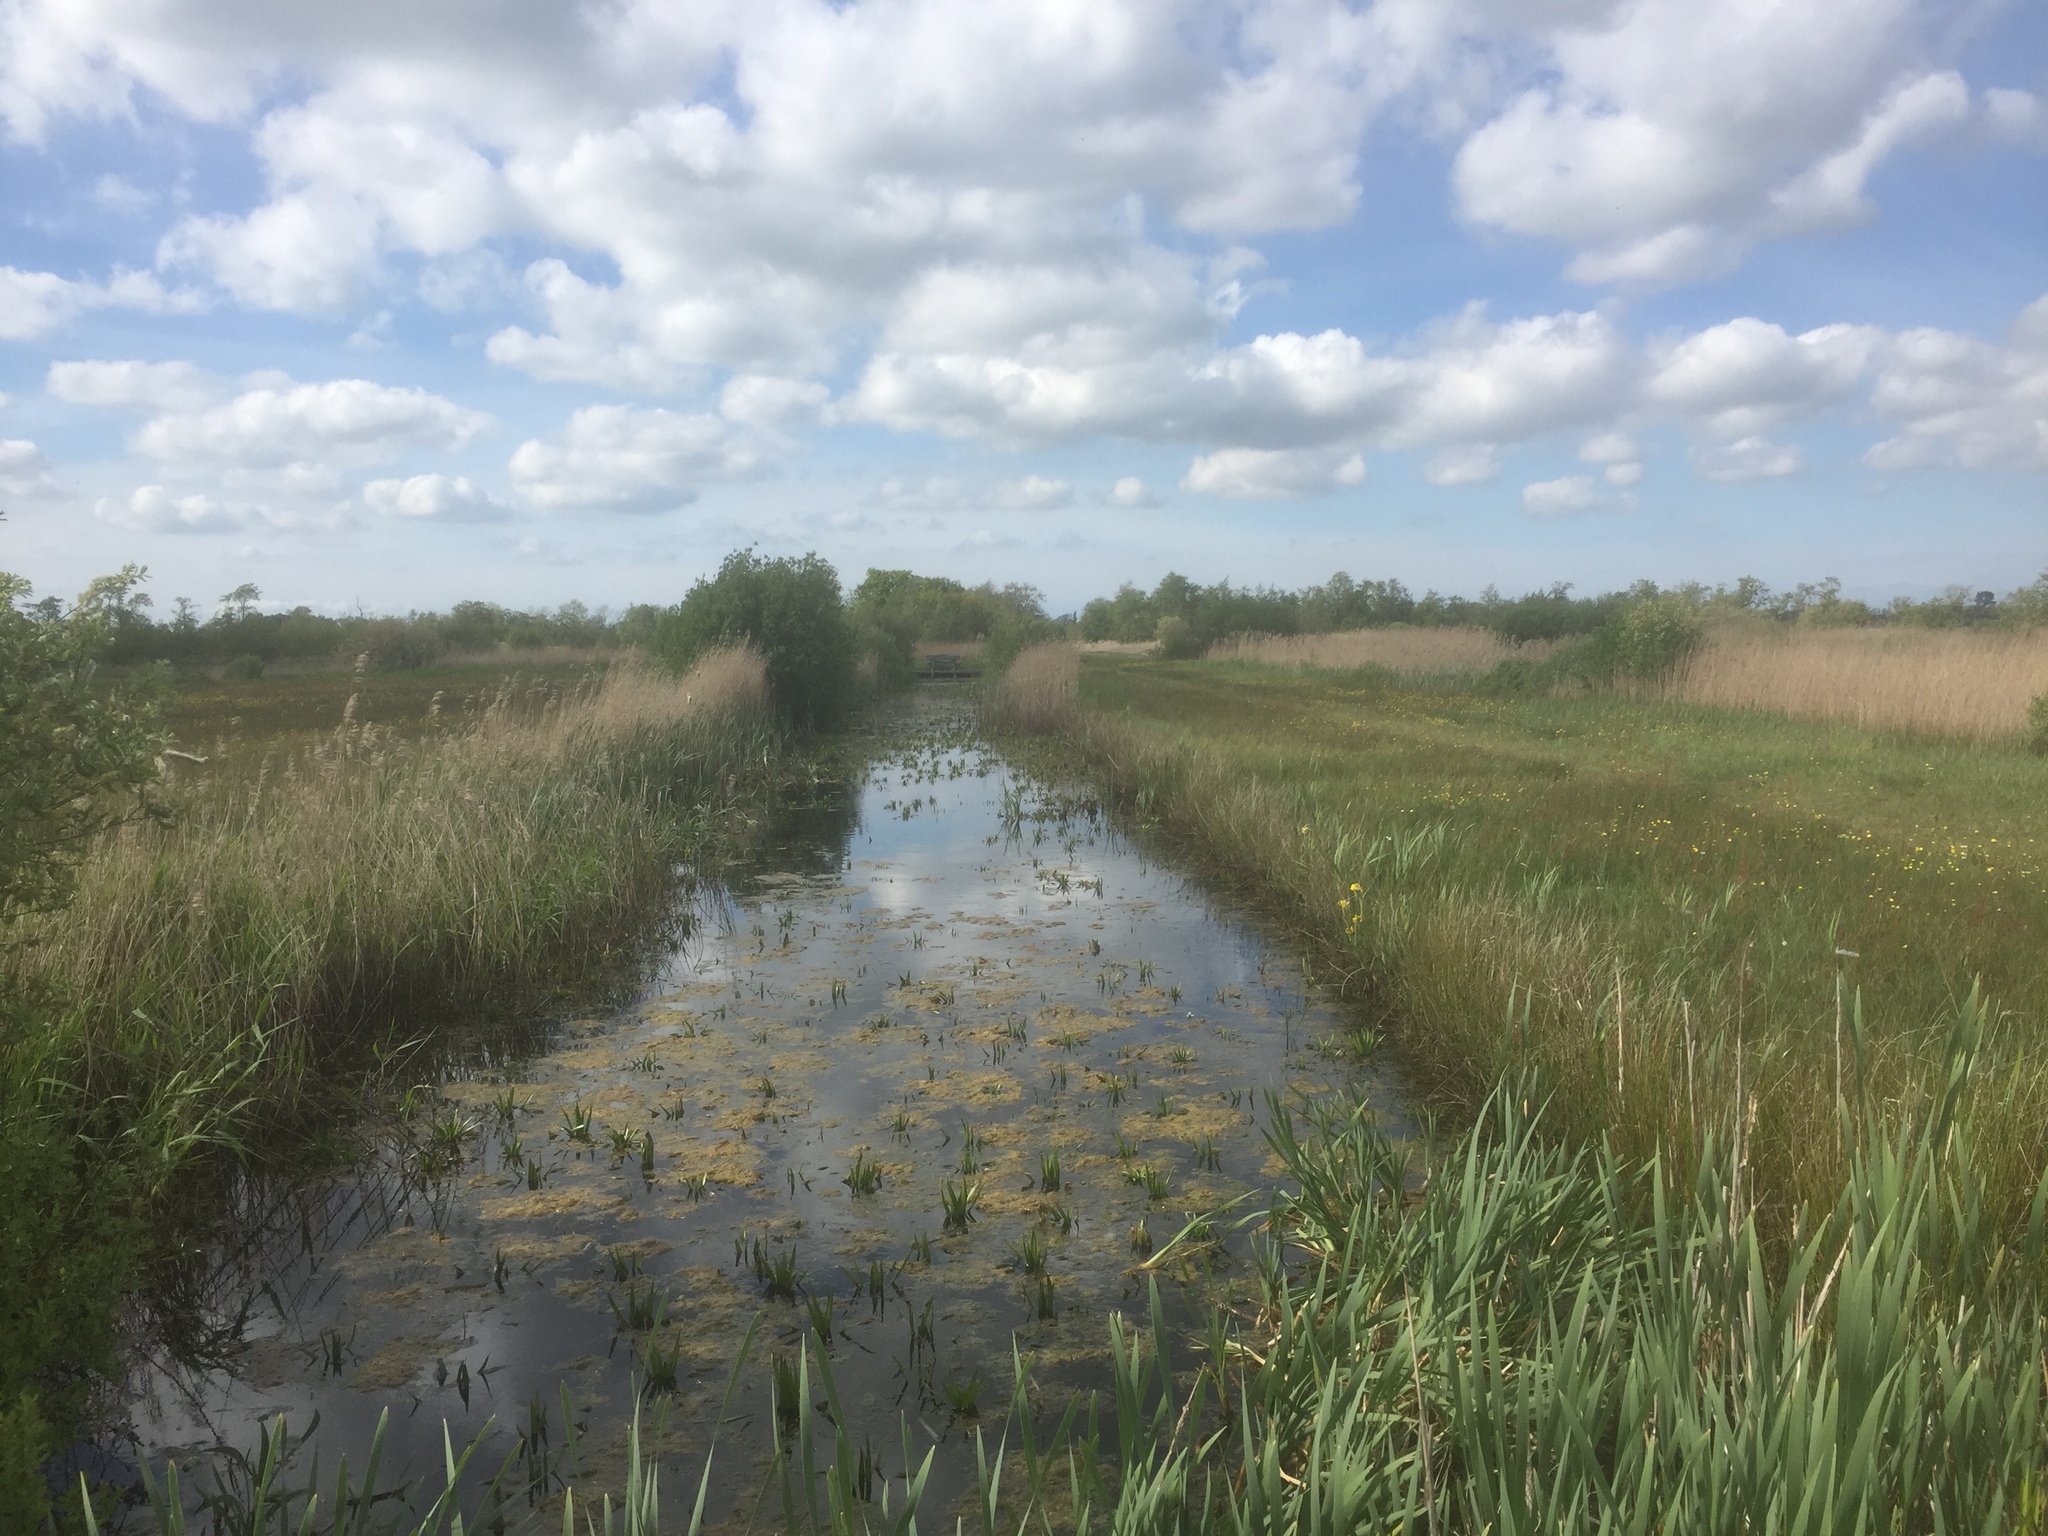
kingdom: Plantae
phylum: Tracheophyta
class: Liliopsida
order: Alismatales
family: Hydrocharitaceae
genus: Stratiotes
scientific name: Stratiotes aloides
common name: Water-soldier
